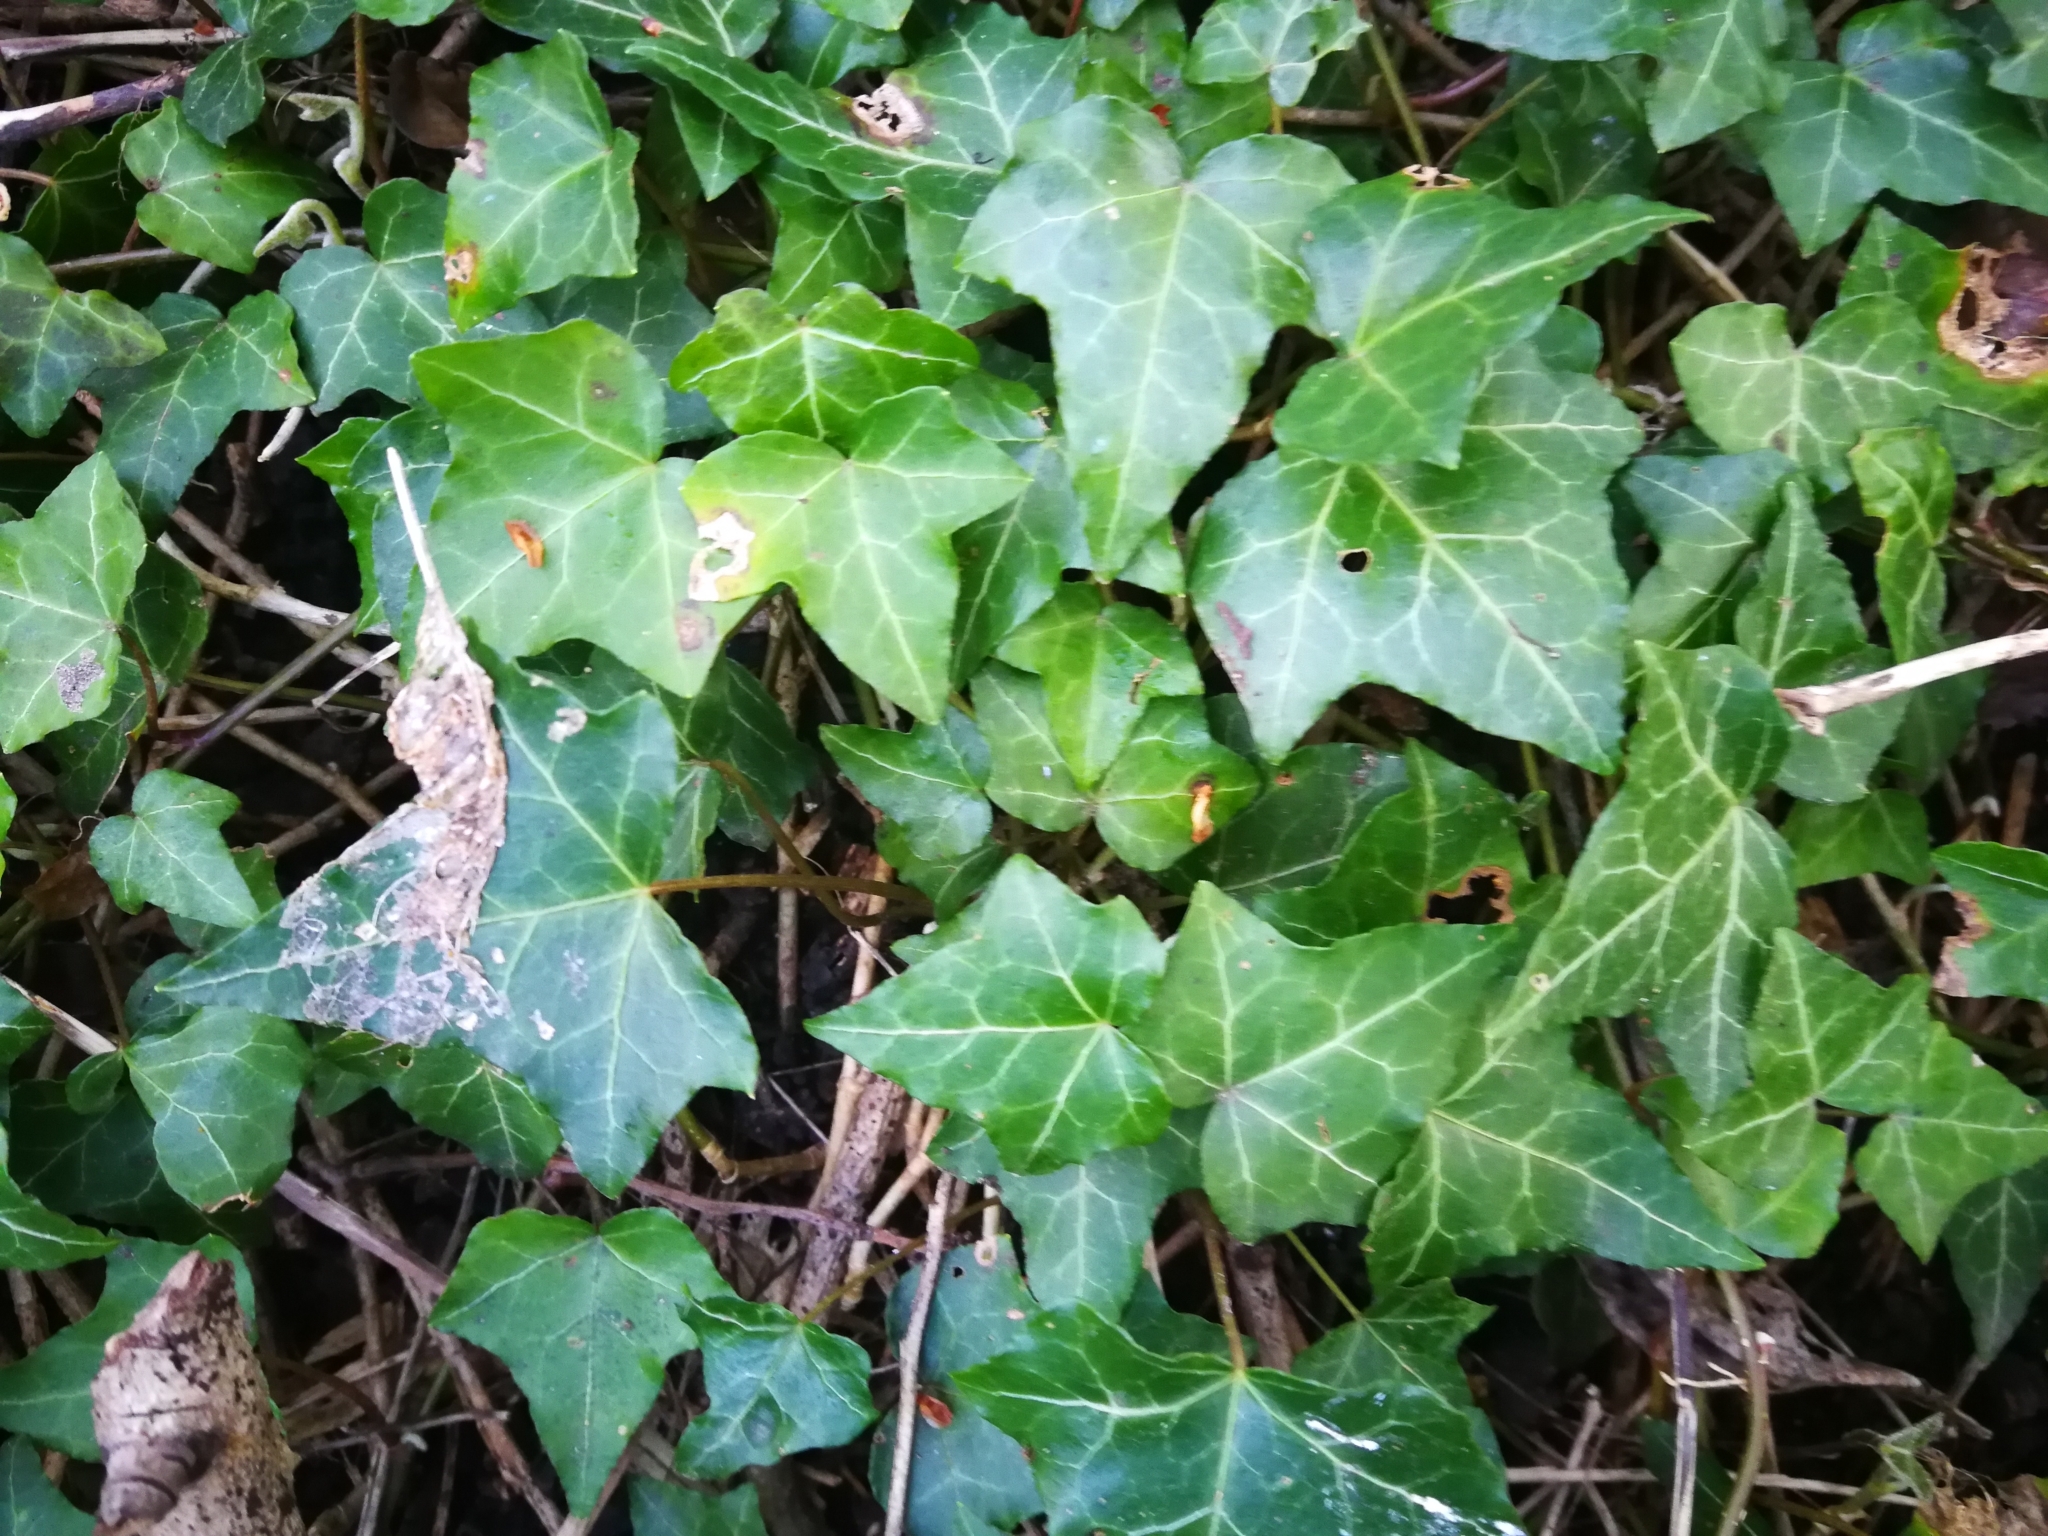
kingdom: Plantae
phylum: Tracheophyta
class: Magnoliopsida
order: Apiales
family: Araliaceae
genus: Hedera
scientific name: Hedera helix
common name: Ivy
